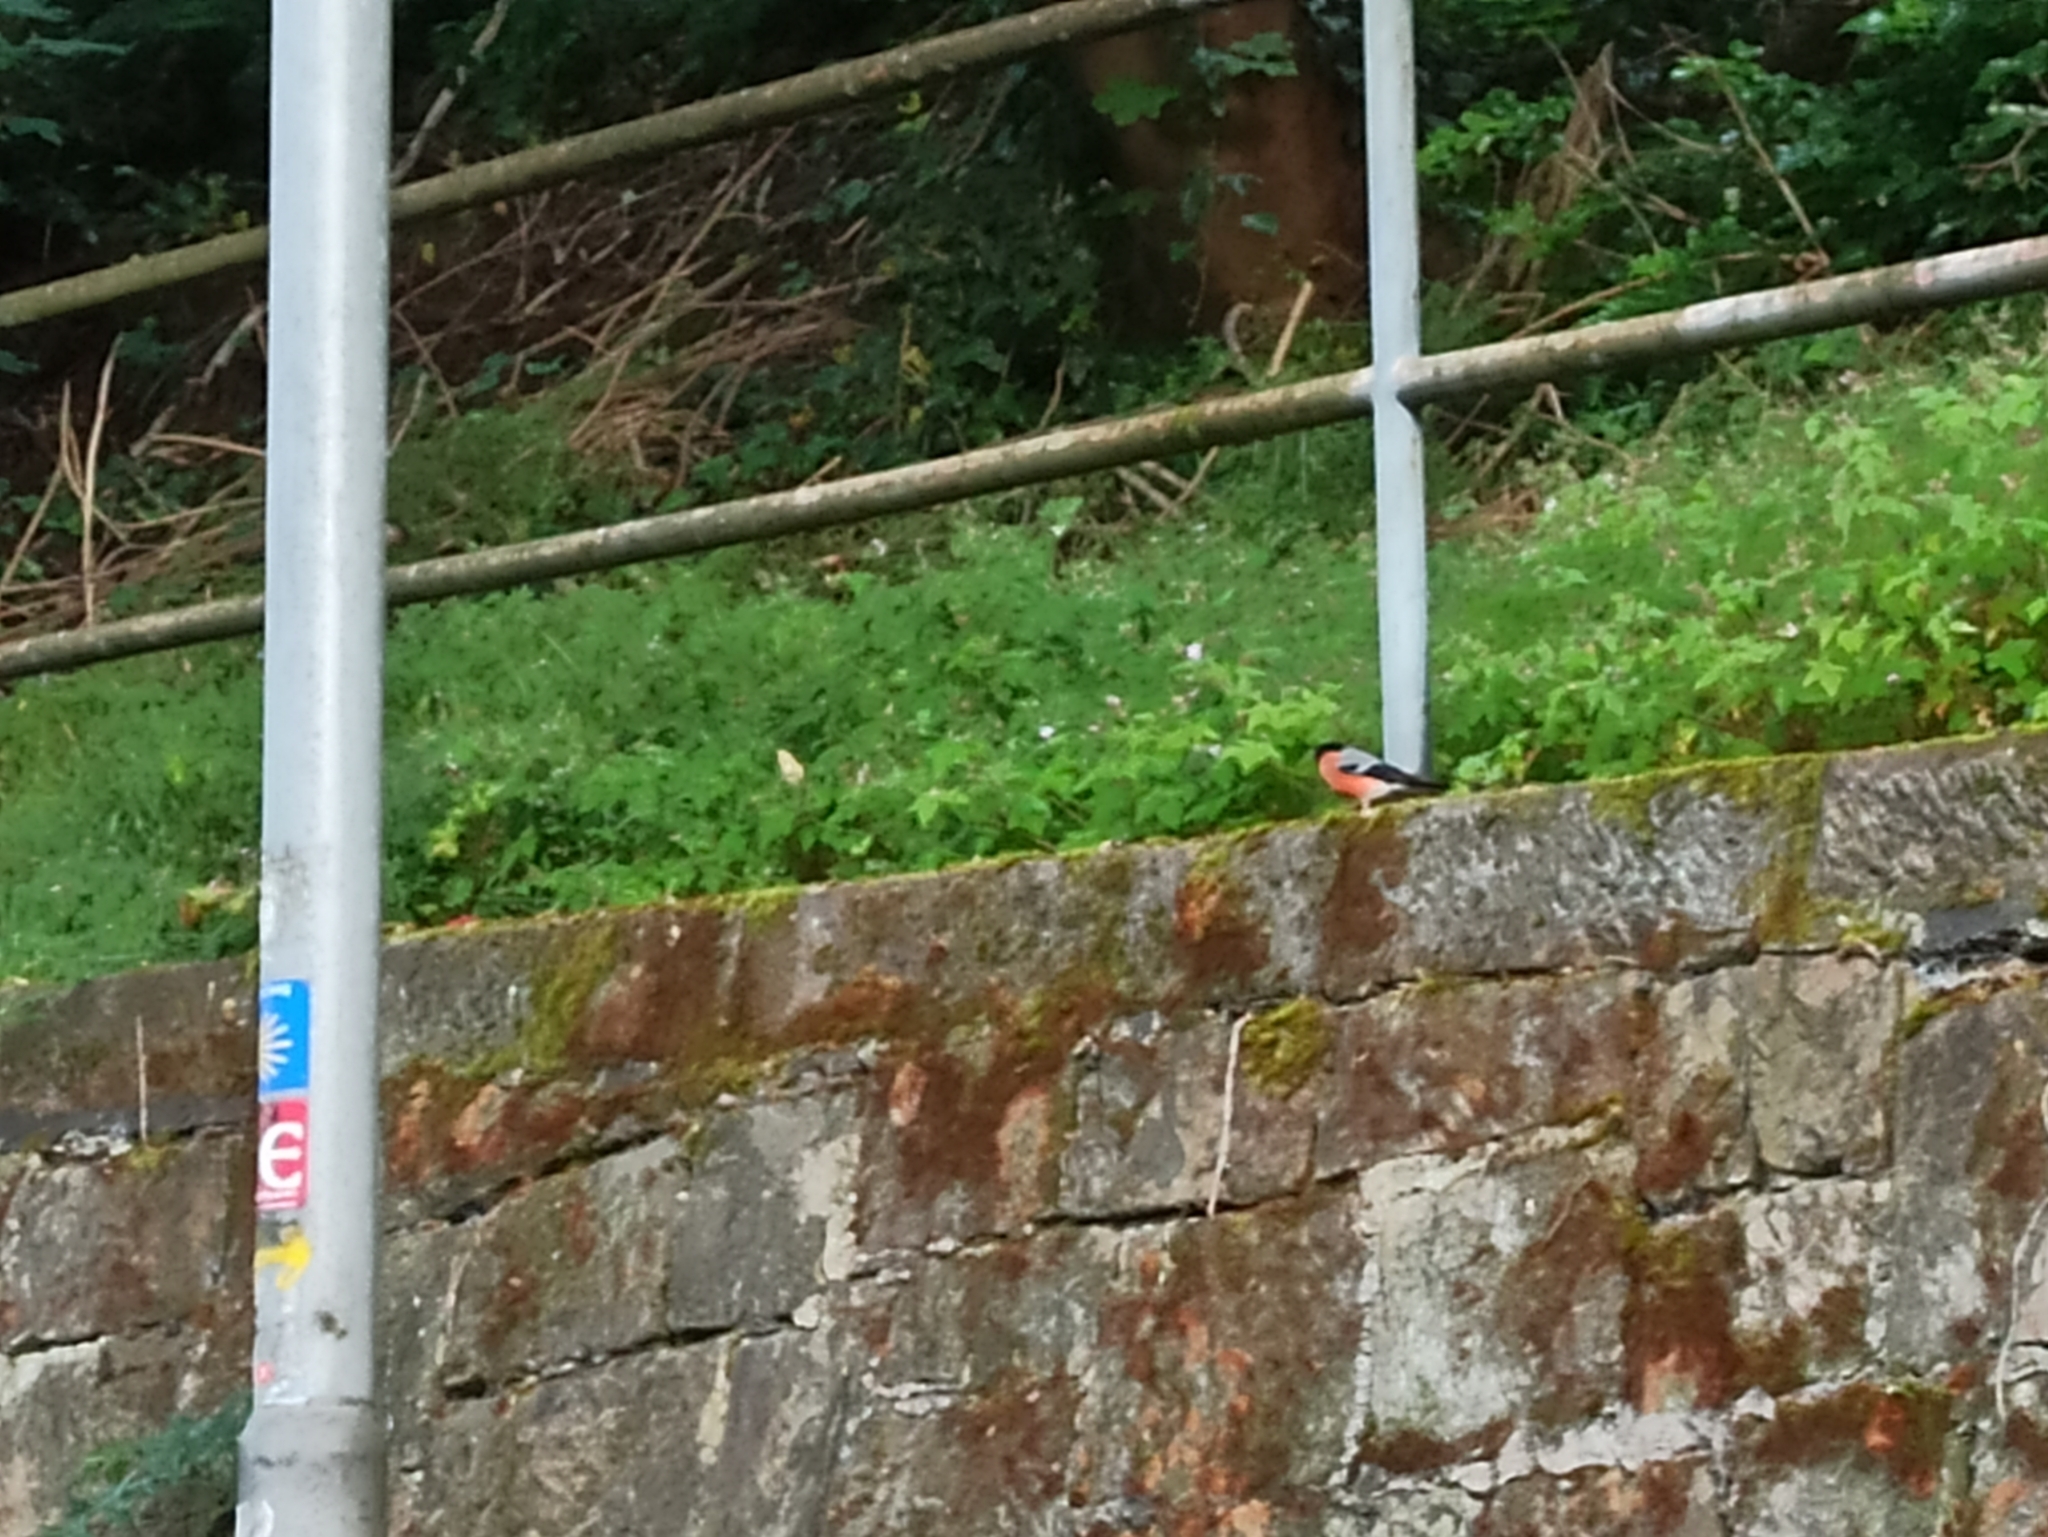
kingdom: Animalia
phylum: Chordata
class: Aves
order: Passeriformes
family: Fringillidae
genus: Pyrrhula
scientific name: Pyrrhula pyrrhula
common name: Eurasian bullfinch
